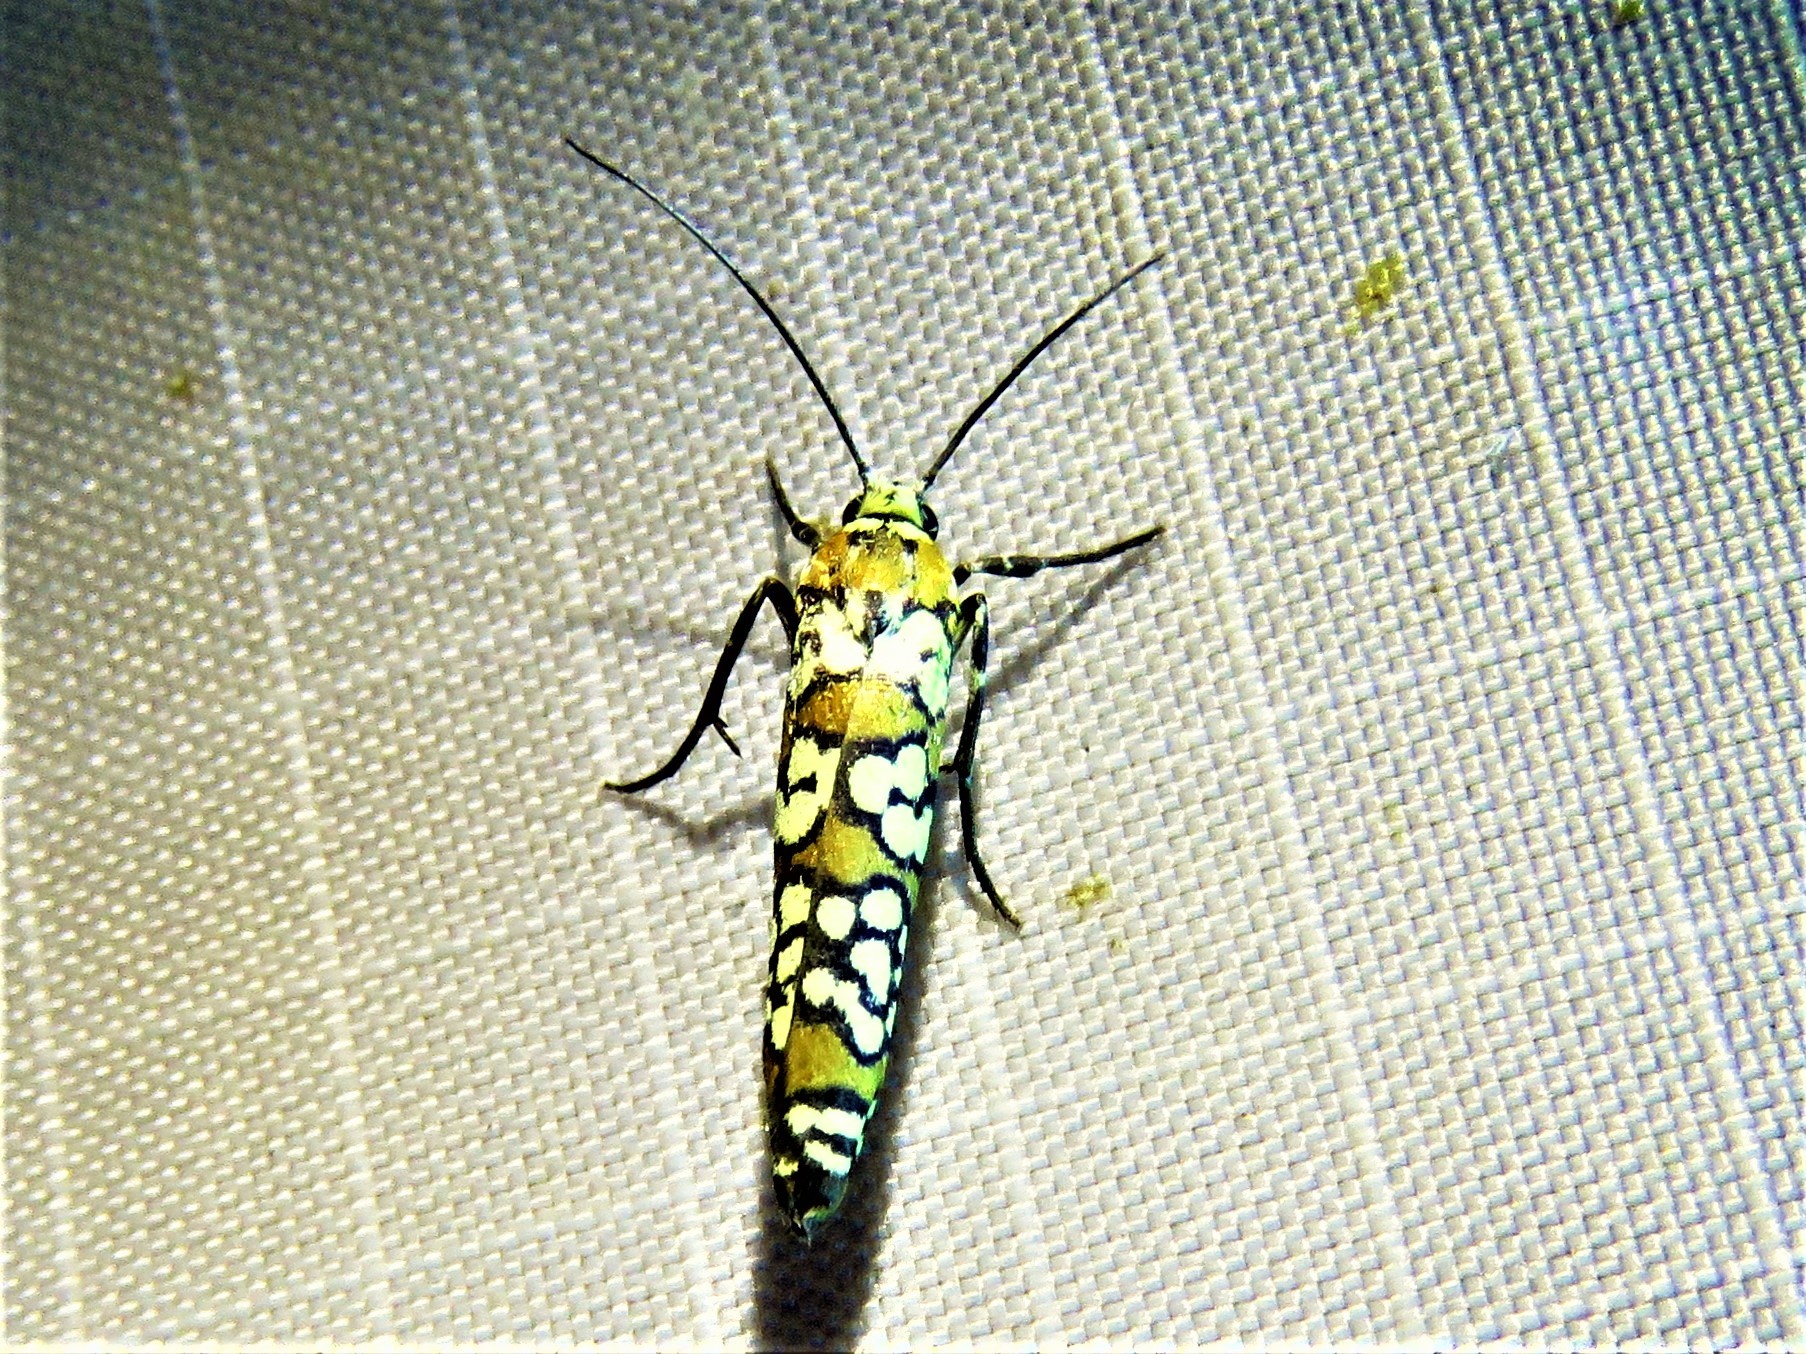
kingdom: Animalia
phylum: Arthropoda
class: Insecta
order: Lepidoptera
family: Attevidae
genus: Atteva
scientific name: Atteva punctella
